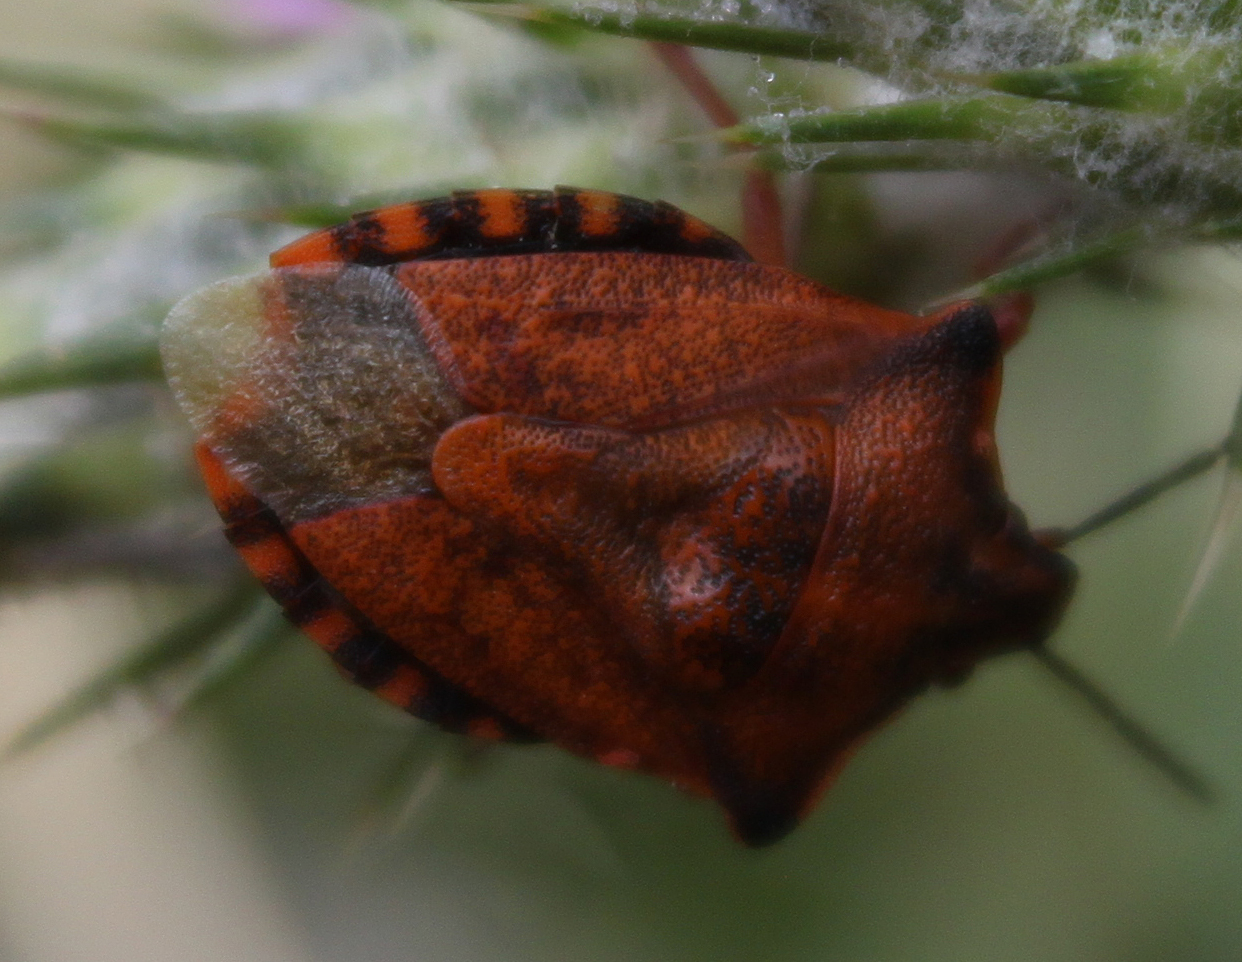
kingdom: Animalia
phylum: Arthropoda
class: Insecta
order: Hemiptera
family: Pentatomidae
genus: Carpocoris
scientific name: Carpocoris mediterraneus
